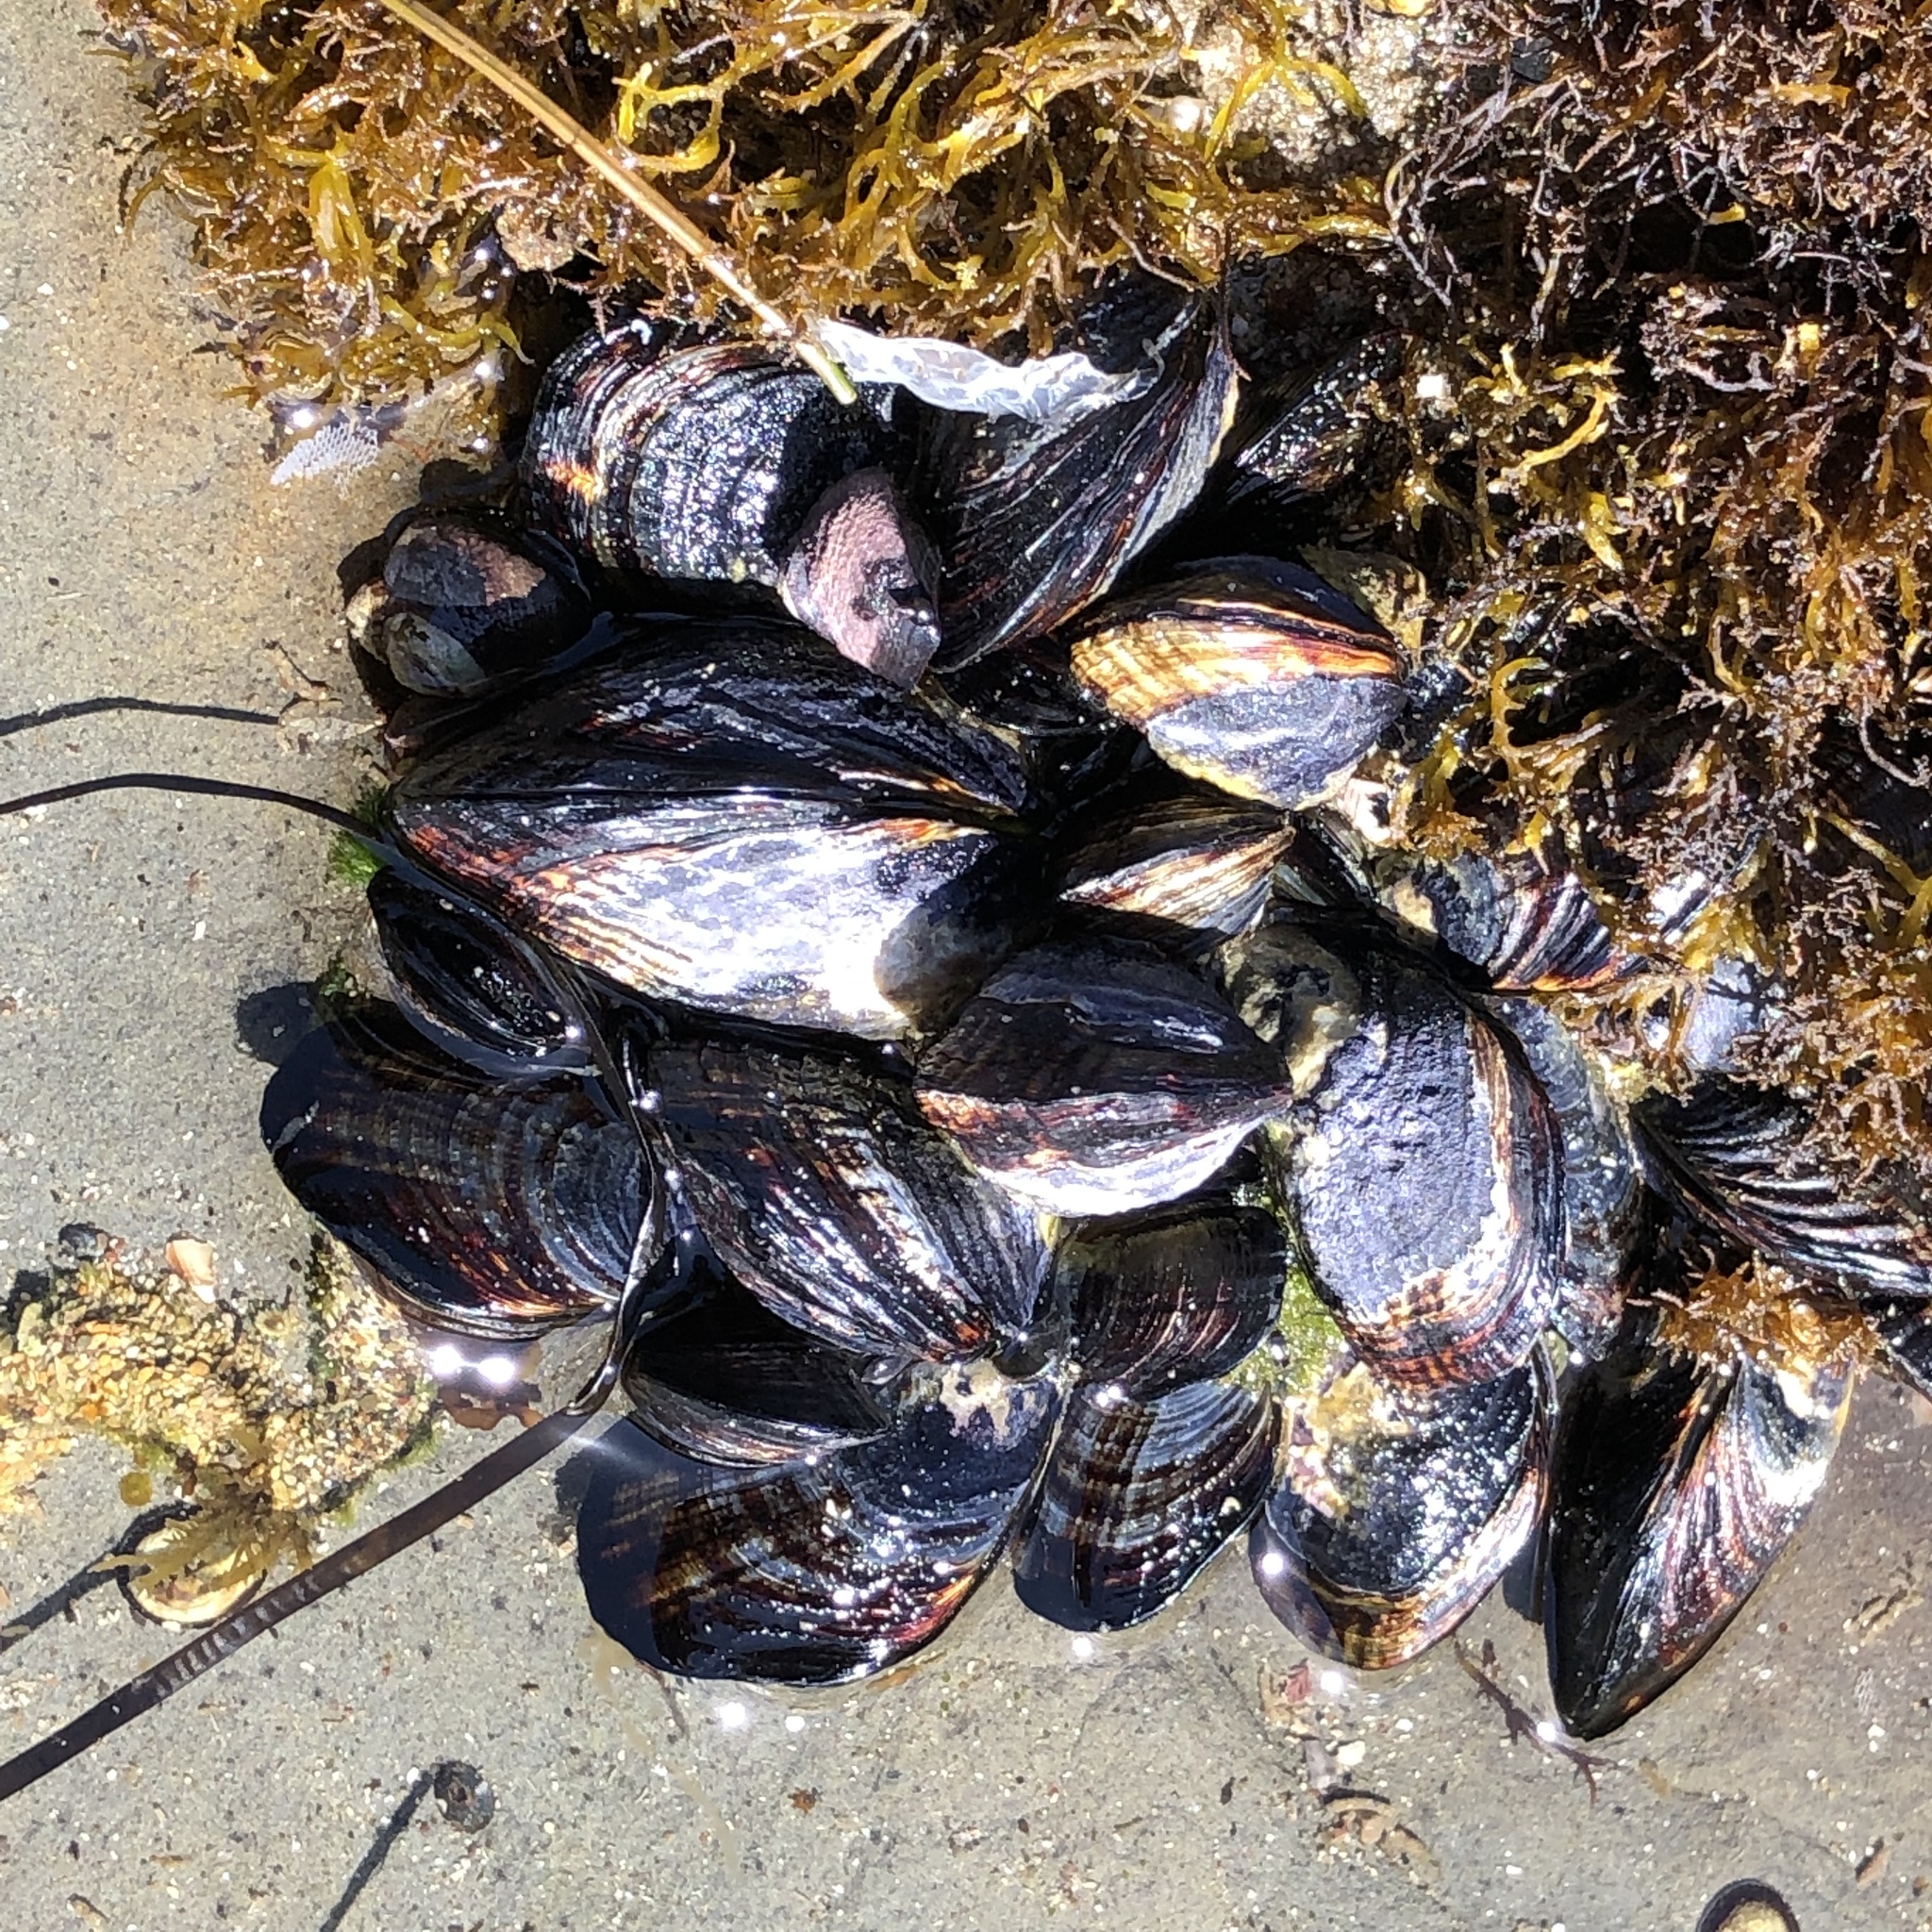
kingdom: Animalia
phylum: Mollusca
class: Bivalvia
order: Mytilida
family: Mytilidae
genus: Mytilus
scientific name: Mytilus californianus
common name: California mussel
